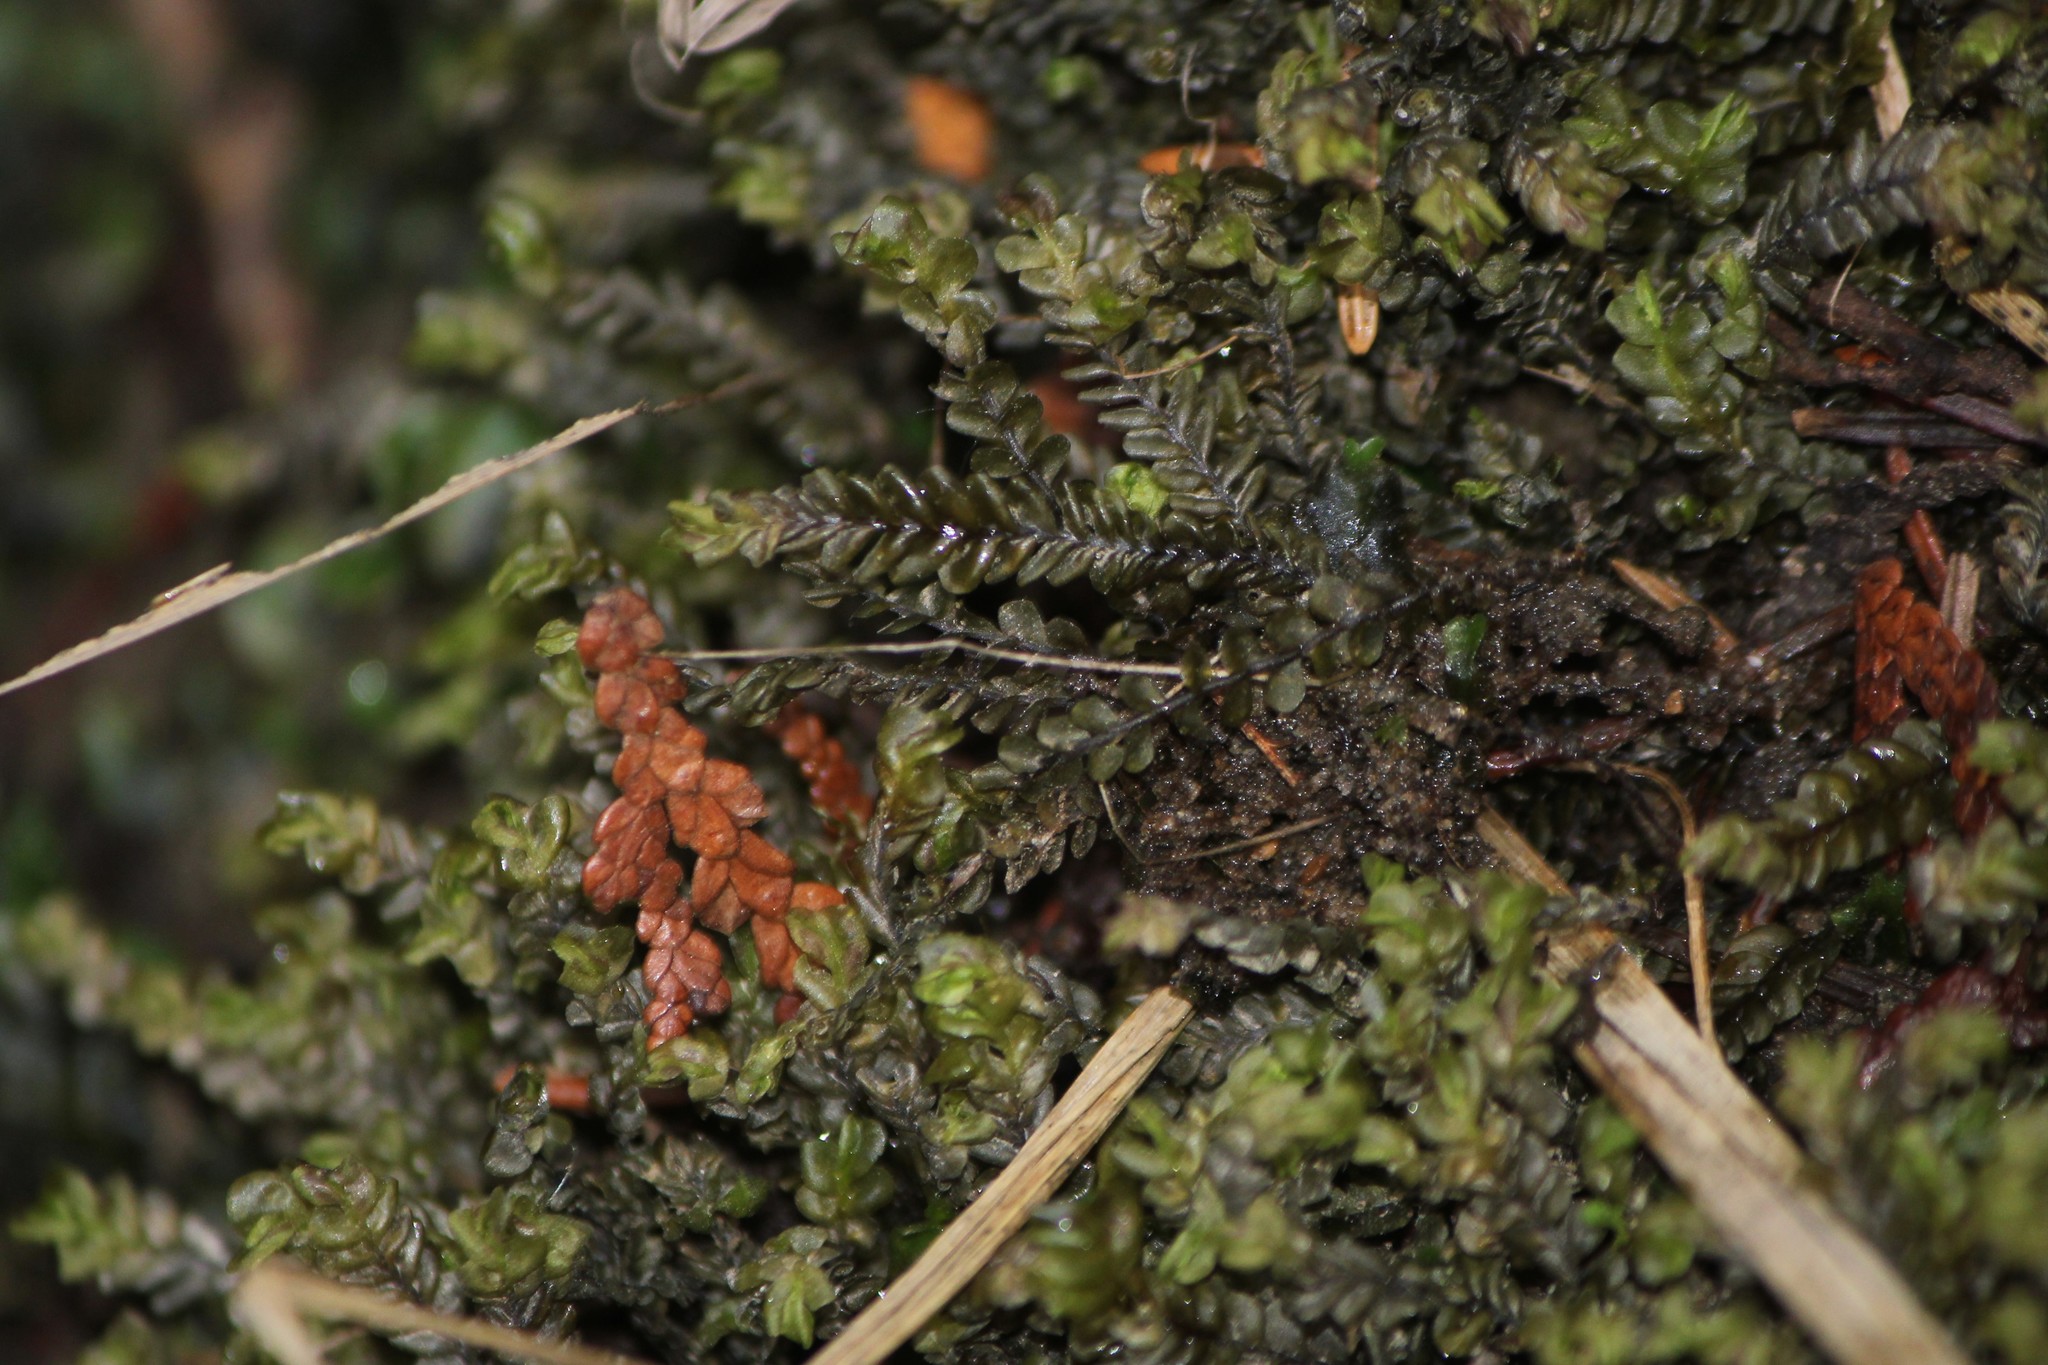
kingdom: Plantae
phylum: Marchantiophyta
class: Jungermanniopsida
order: Jungermanniales
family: Plagiochilaceae
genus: Plagiochila
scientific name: Plagiochila porelloides
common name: Lesser featherwort
